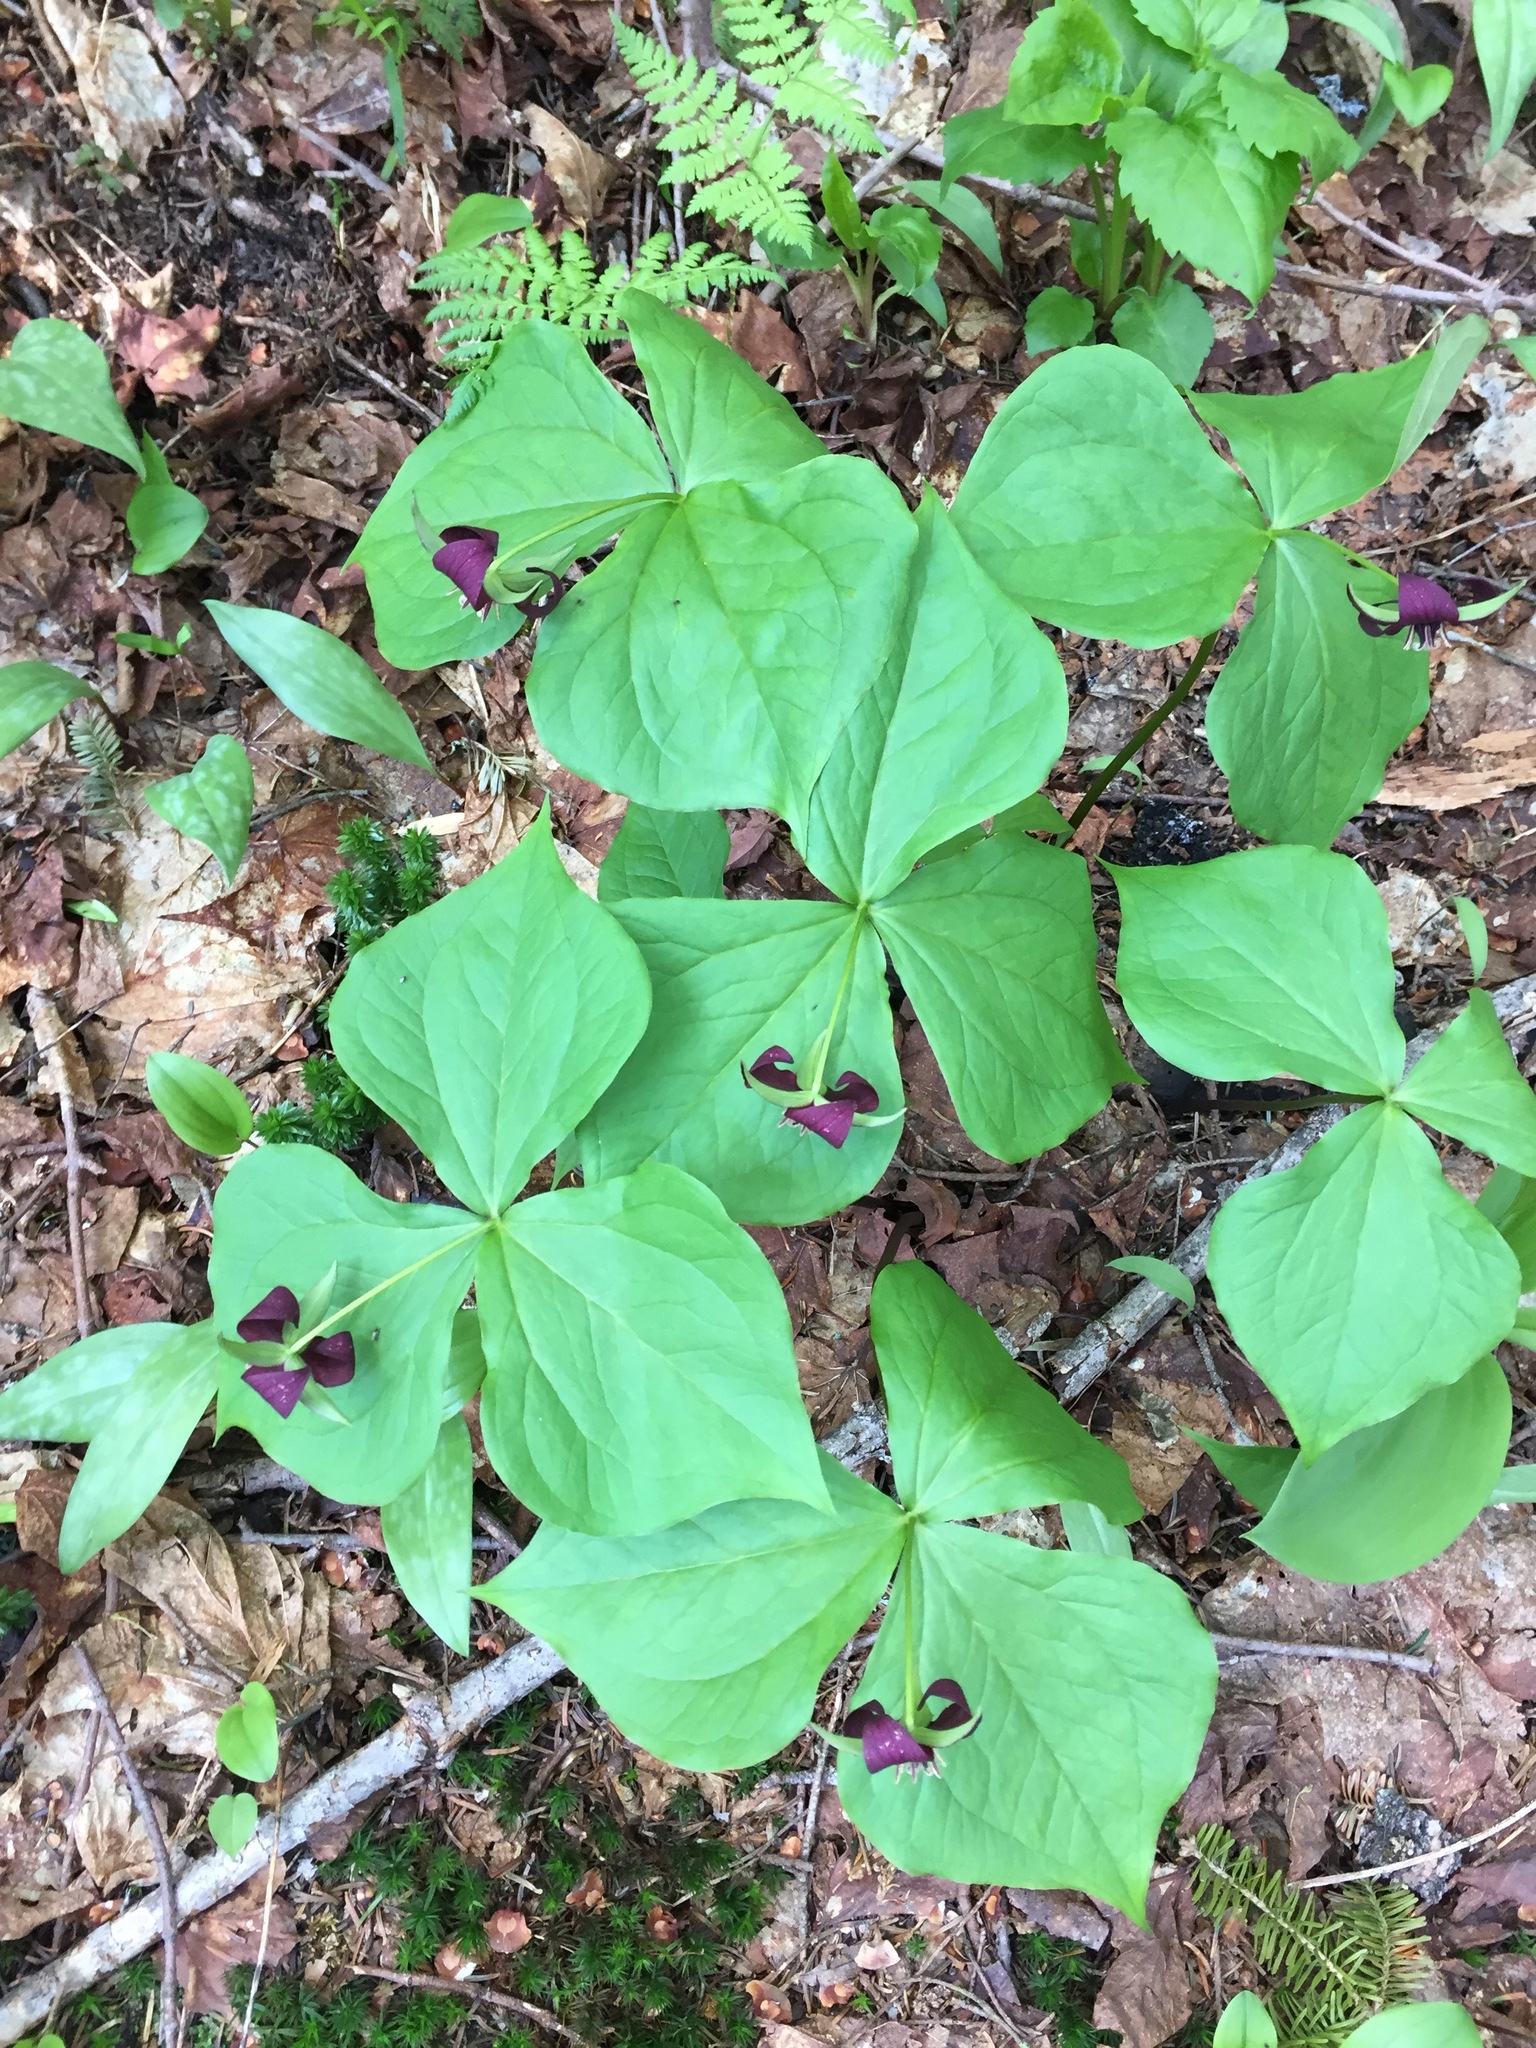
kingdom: Plantae
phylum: Tracheophyta
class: Liliopsida
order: Liliales
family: Melanthiaceae
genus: Trillium
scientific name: Trillium erectum
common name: Purple trillium
